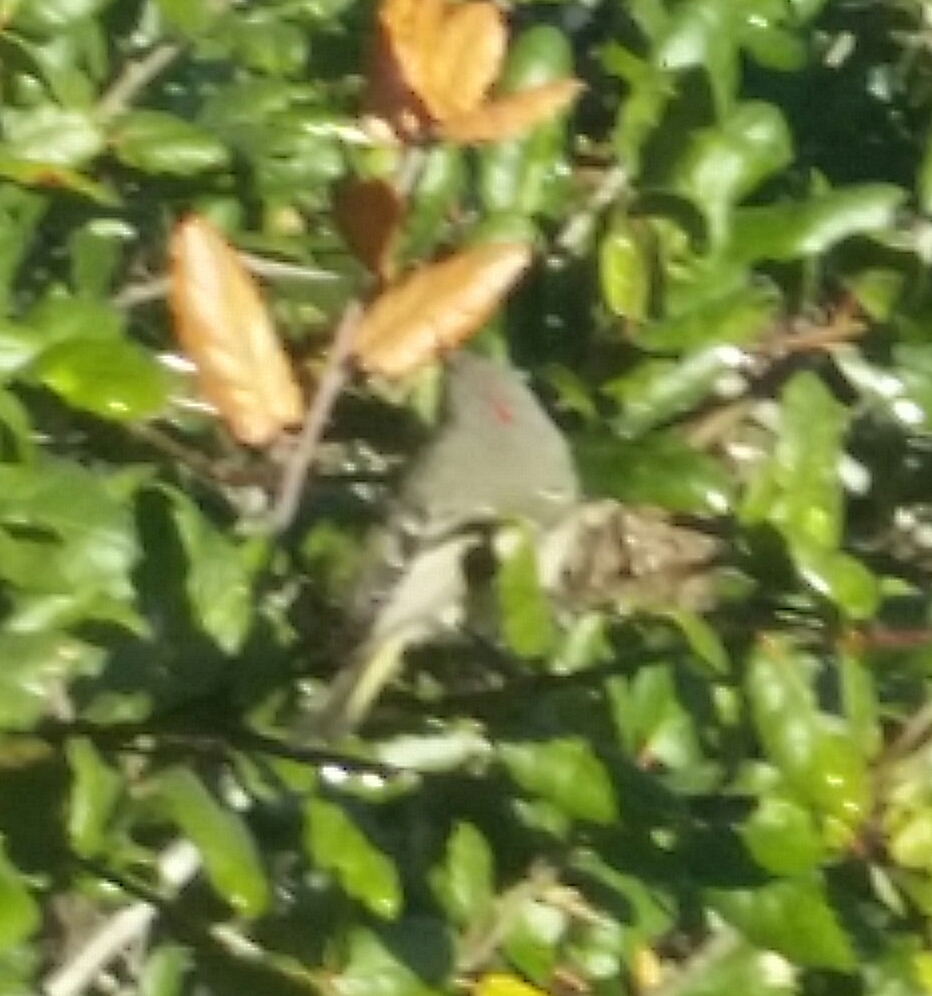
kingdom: Animalia
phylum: Chordata
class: Aves
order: Passeriformes
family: Regulidae
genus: Regulus
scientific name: Regulus calendula
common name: Ruby-crowned kinglet
